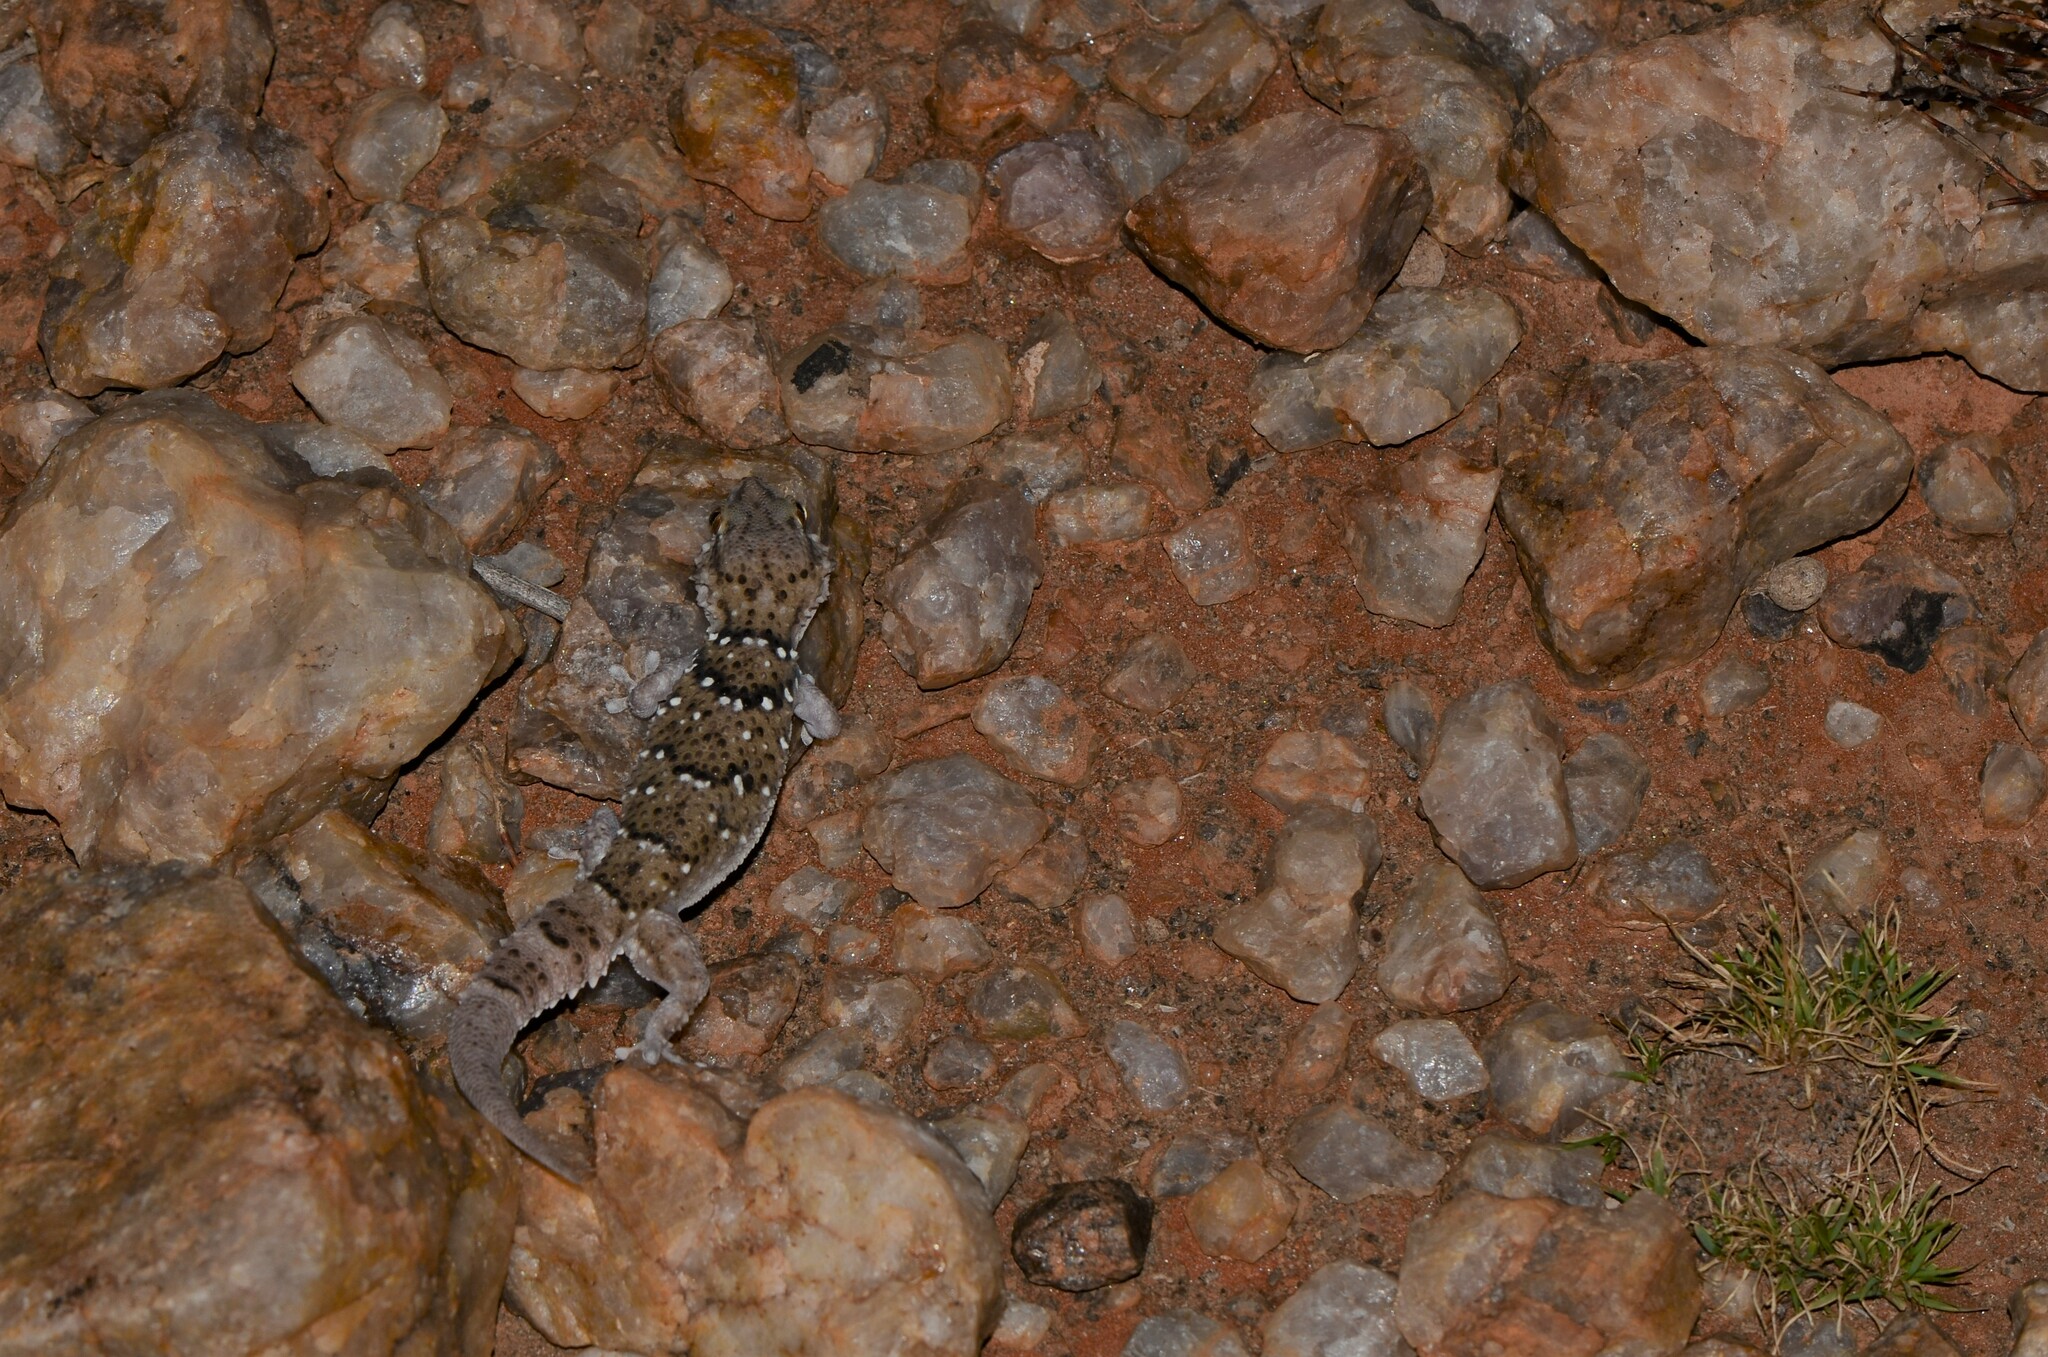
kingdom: Animalia
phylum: Chordata
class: Squamata
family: Gekkonidae
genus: Chondrodactylus
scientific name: Chondrodactylus laevigatus
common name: Fischer's thick-toed gecko
